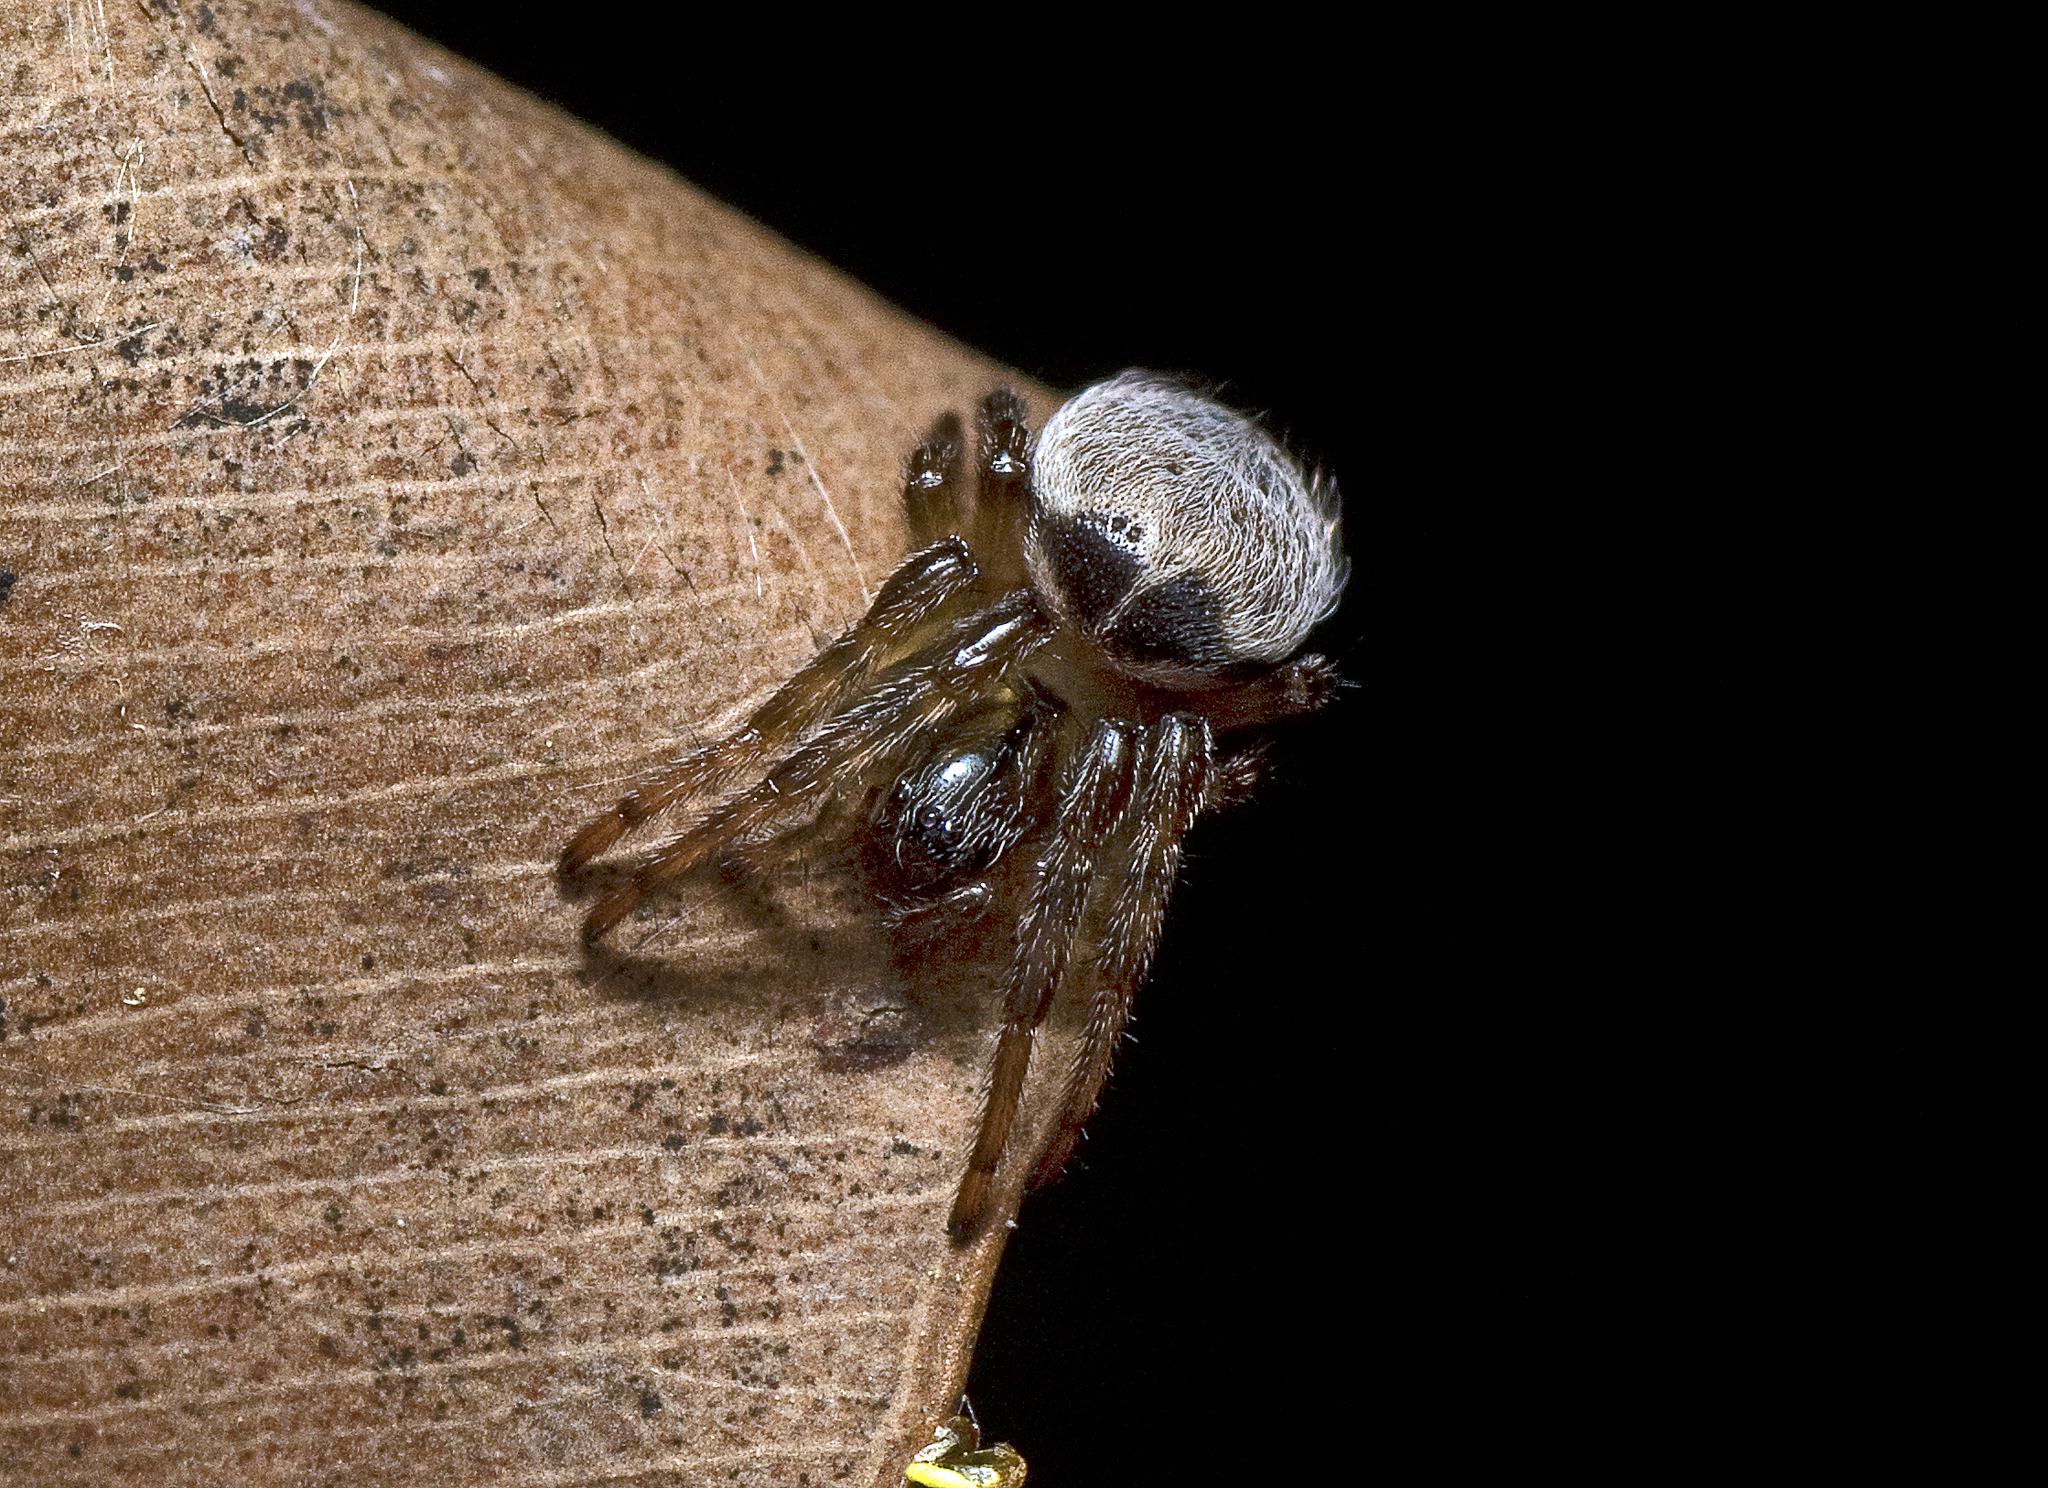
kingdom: Animalia
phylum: Arthropoda
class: Arachnida
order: Araneae
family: Araneidae
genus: Araneus
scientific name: Araneus dimidiatus
